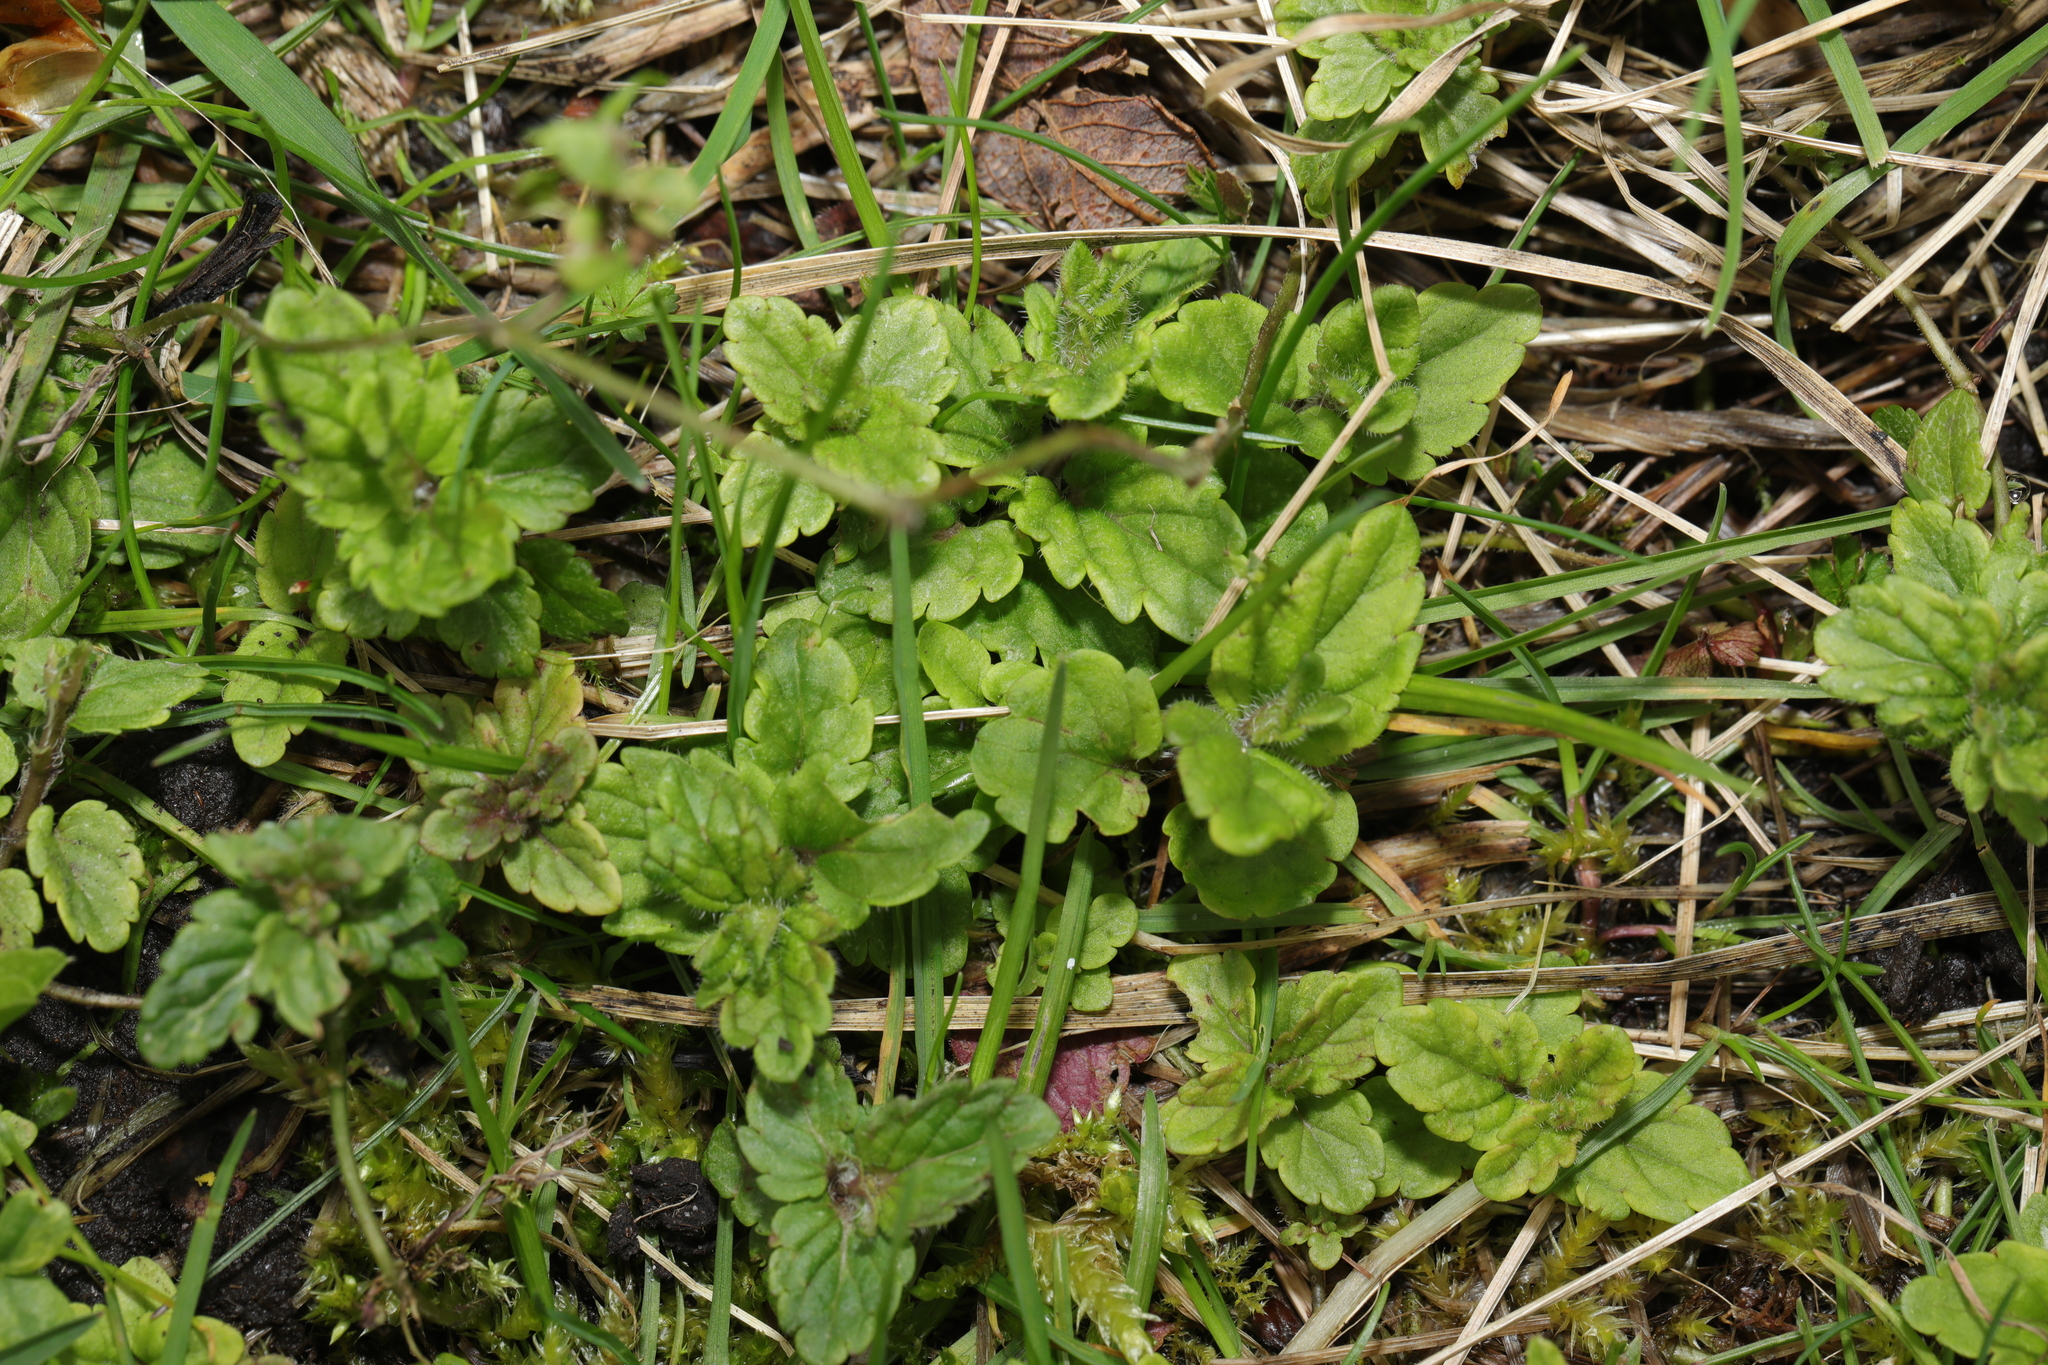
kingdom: Plantae
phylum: Tracheophyta
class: Magnoliopsida
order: Lamiales
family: Plantaginaceae
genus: Veronica
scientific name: Veronica chamaedrys
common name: Germander speedwell
